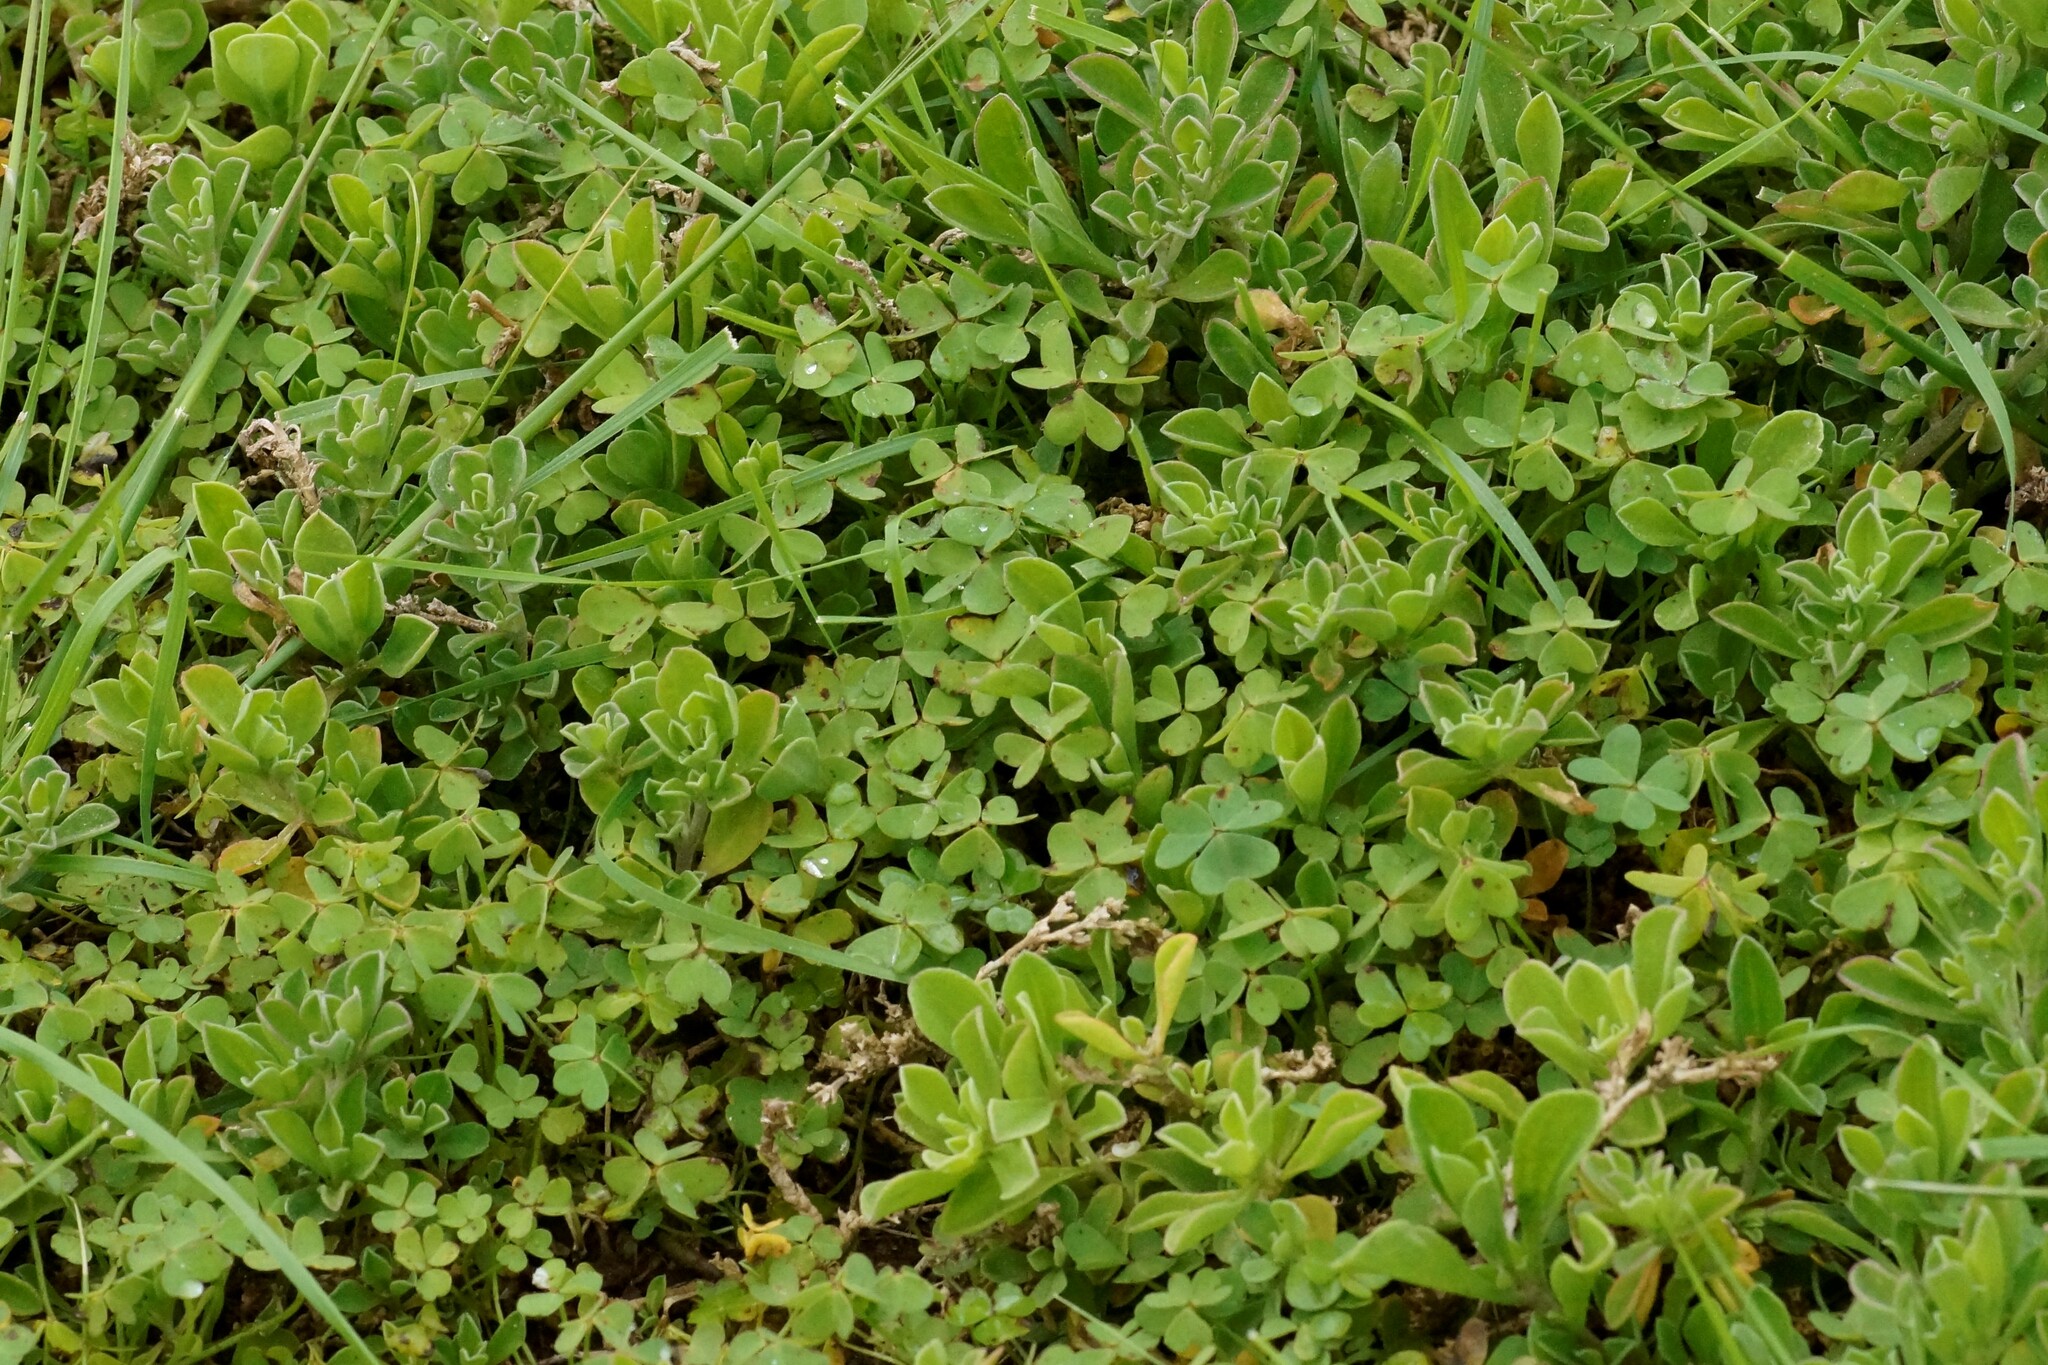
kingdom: Plantae
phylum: Tracheophyta
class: Magnoliopsida
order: Caryophyllales
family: Aizoaceae
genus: Aizoon
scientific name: Aizoon pubescens
